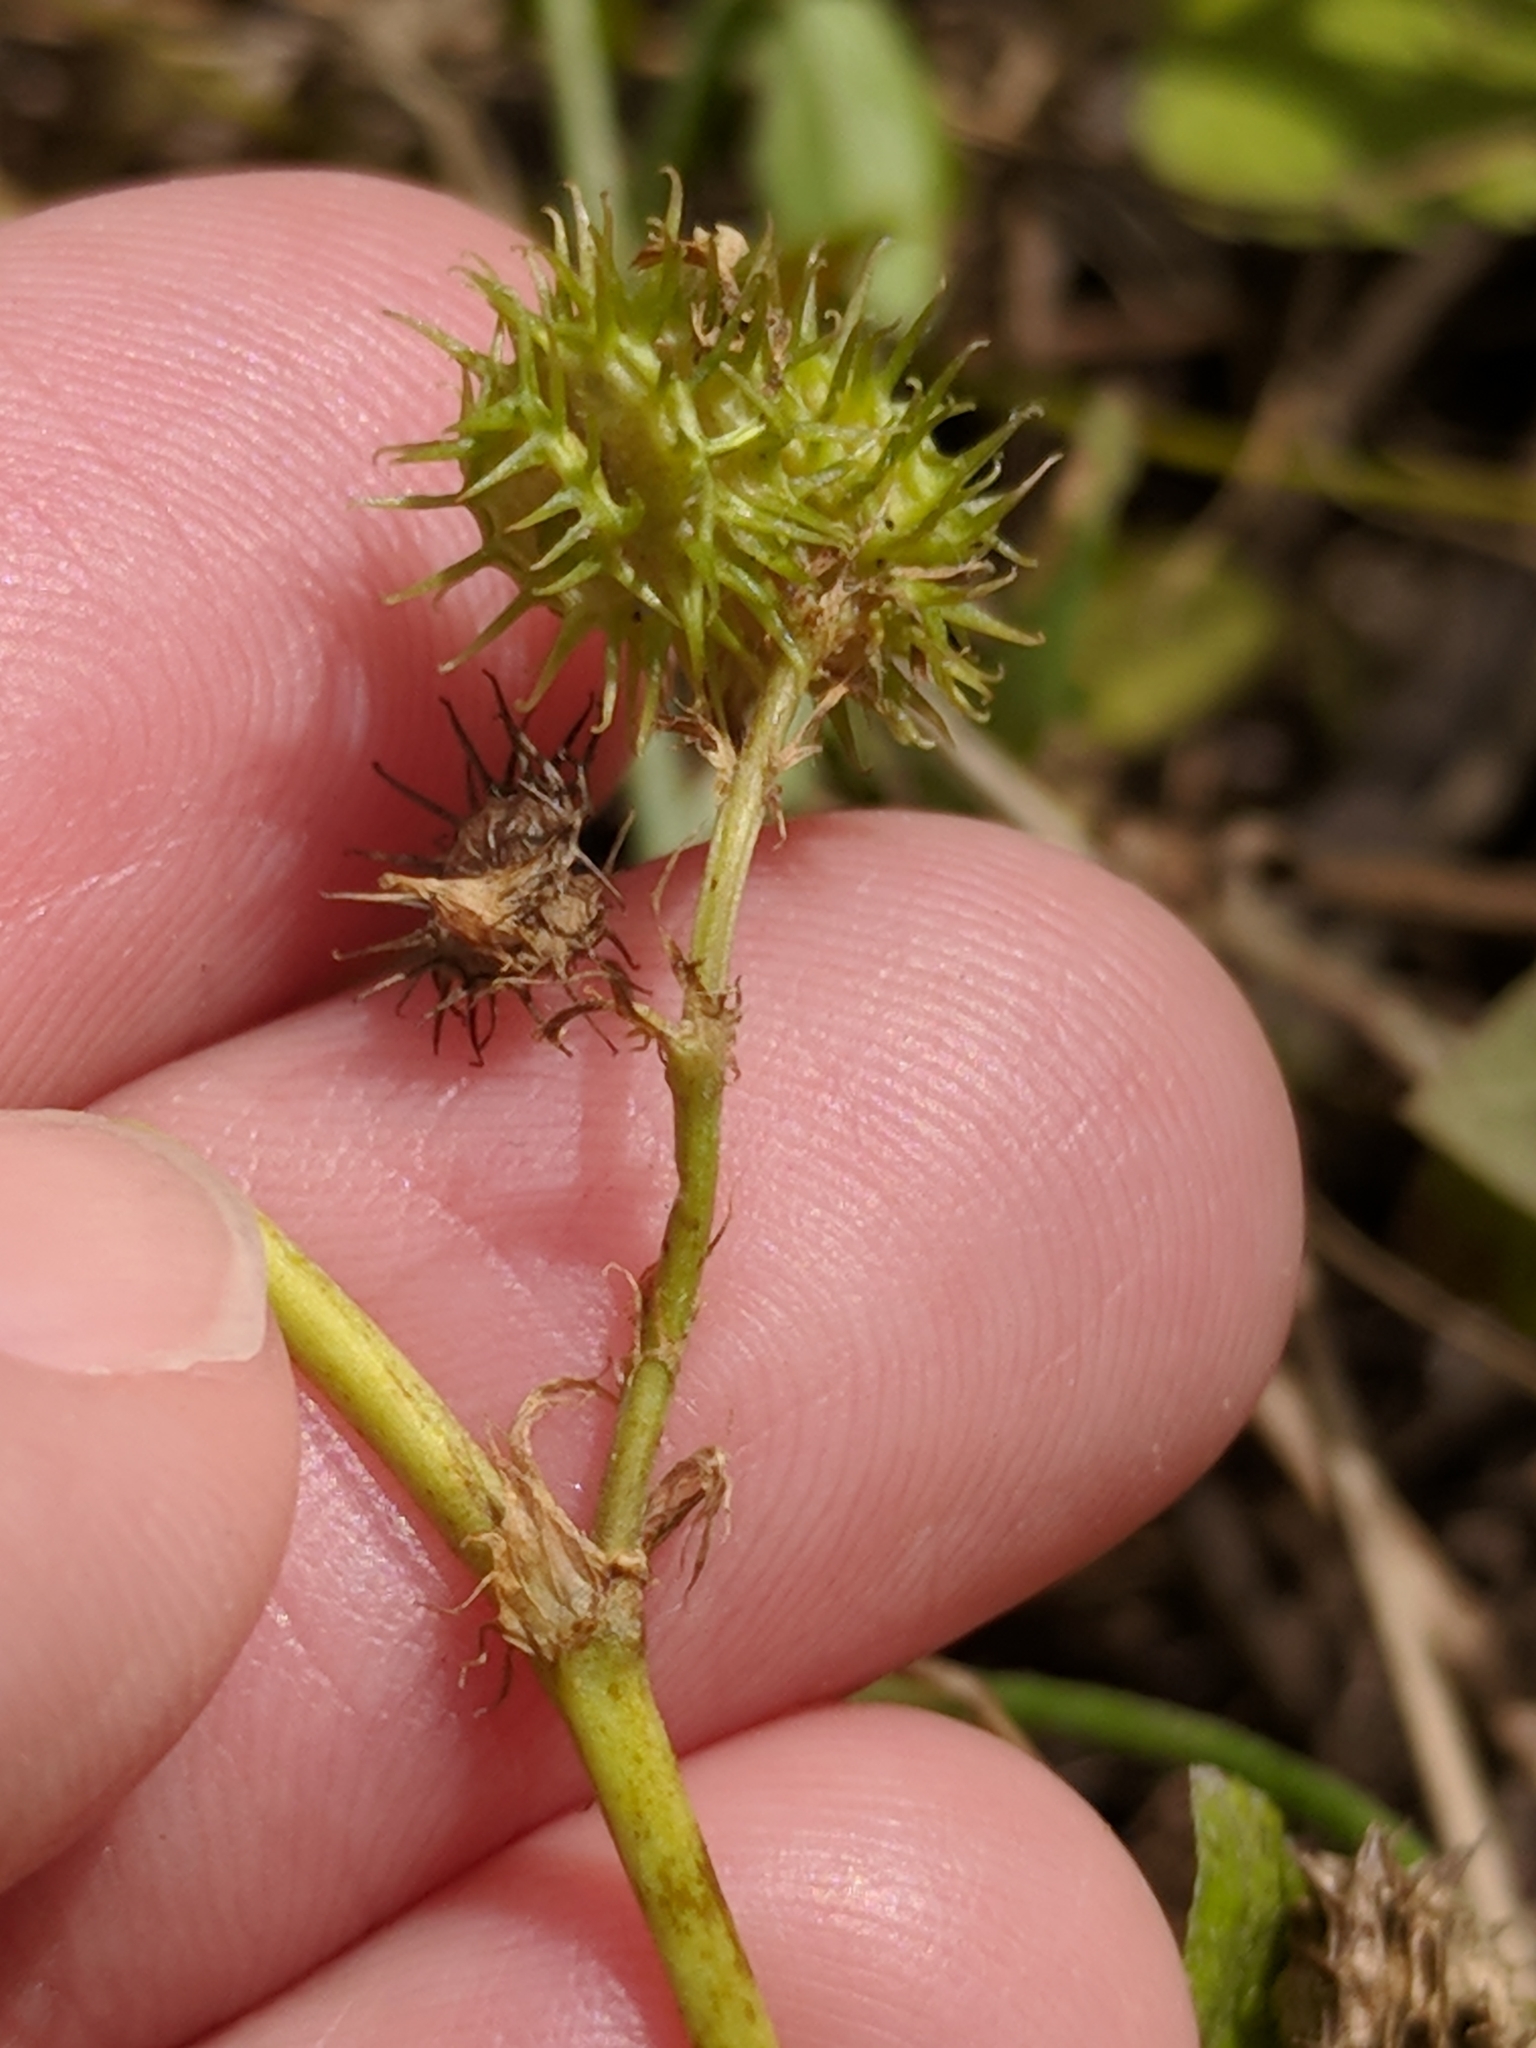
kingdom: Plantae
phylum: Tracheophyta
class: Magnoliopsida
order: Fabales
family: Fabaceae
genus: Medicago
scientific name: Medicago polymorpha
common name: Burclover
